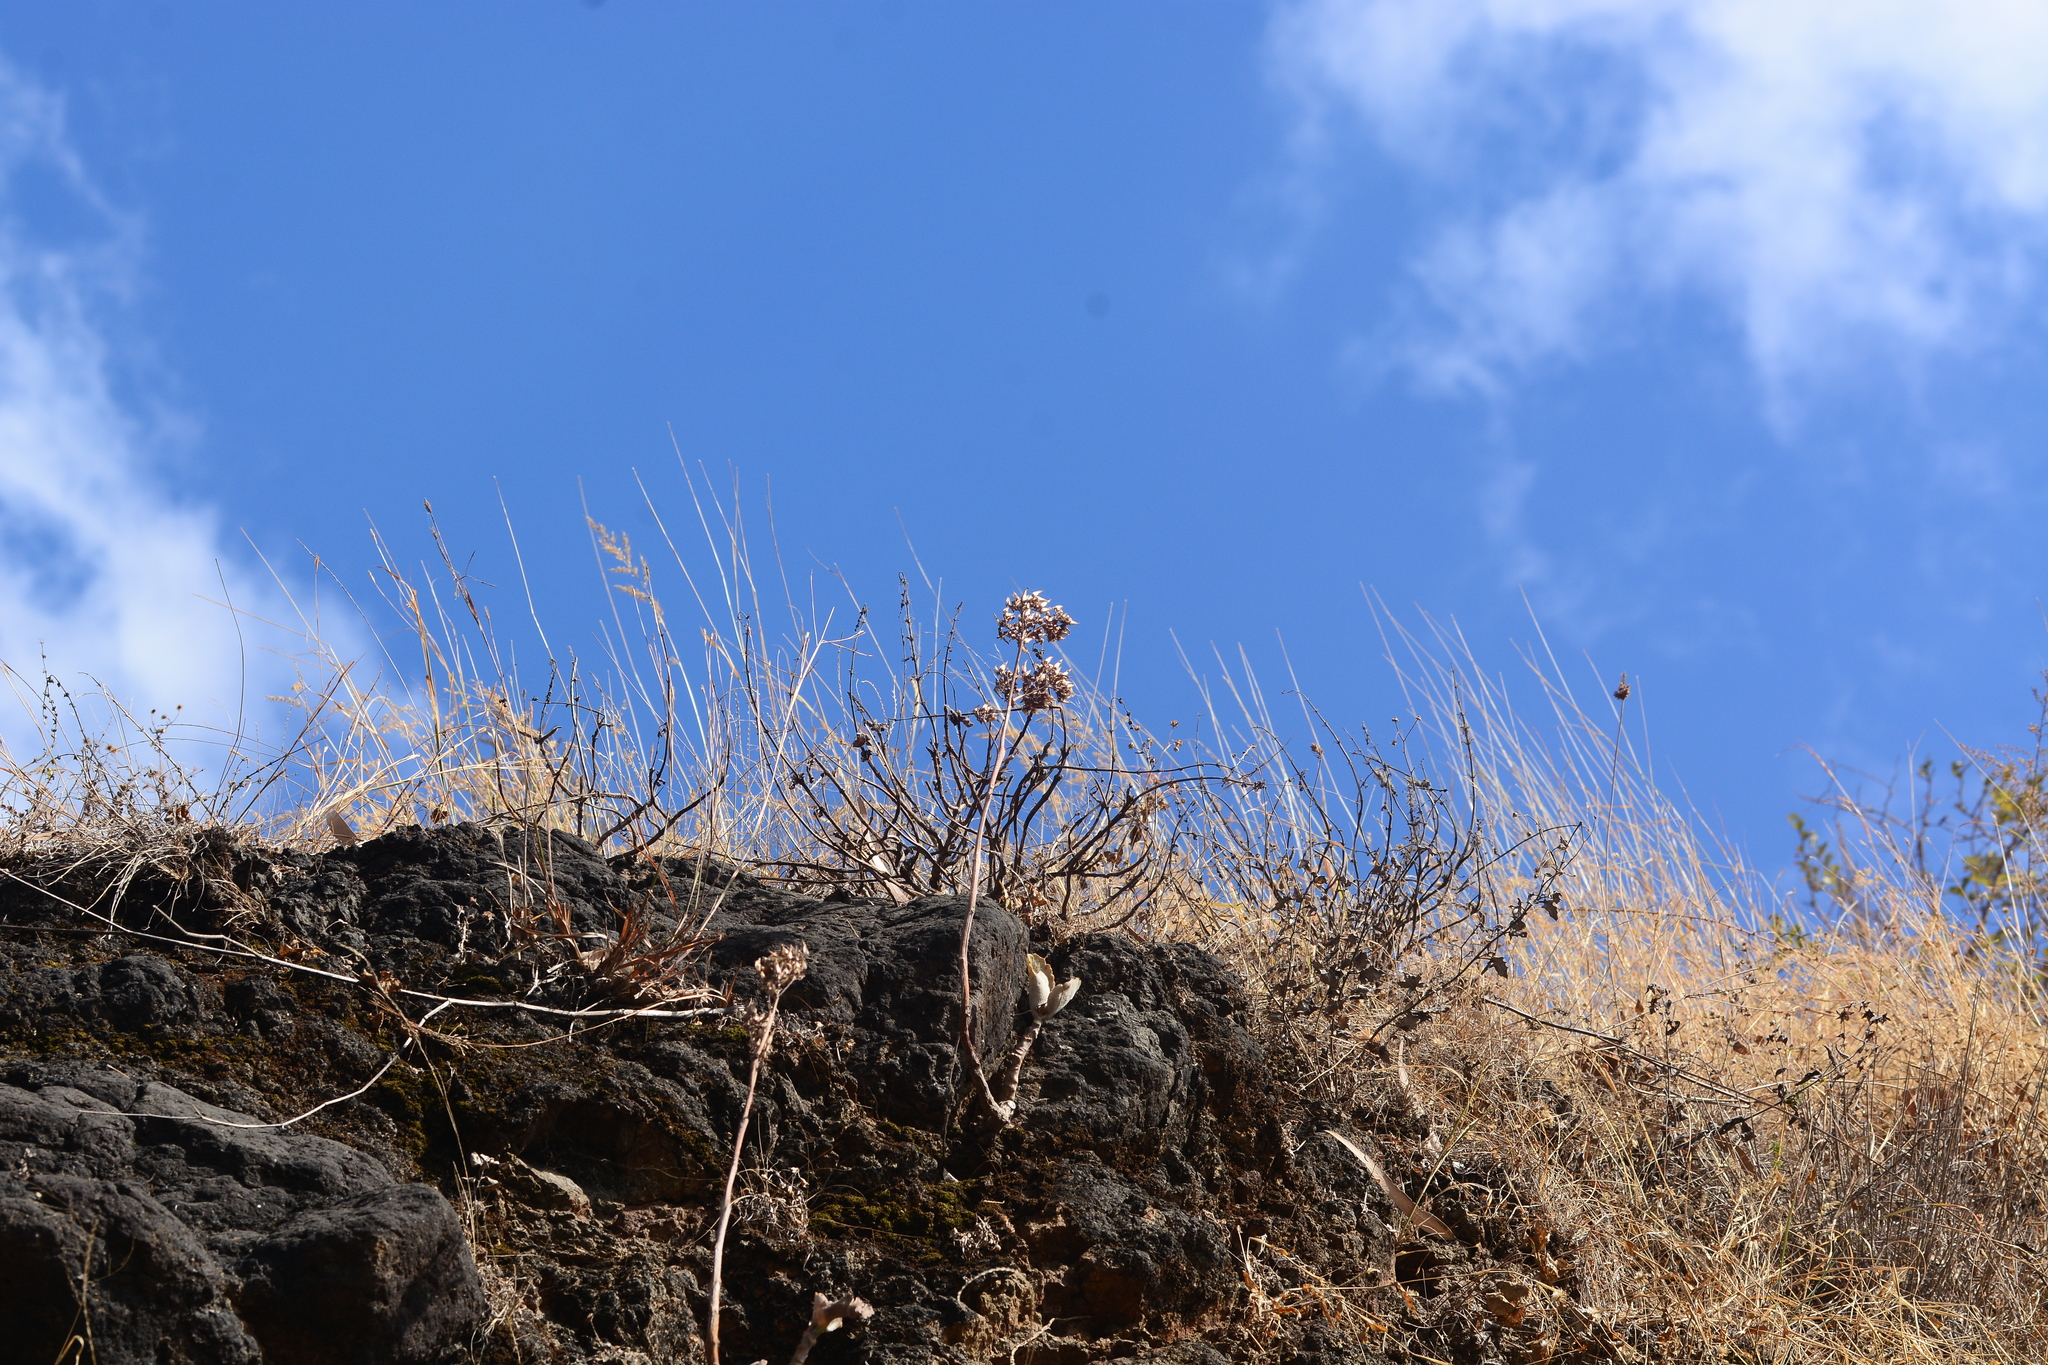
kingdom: Plantae
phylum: Tracheophyta
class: Magnoliopsida
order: Saxifragales
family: Crassulaceae
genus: Kalanchoe
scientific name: Kalanchoe bhidei
